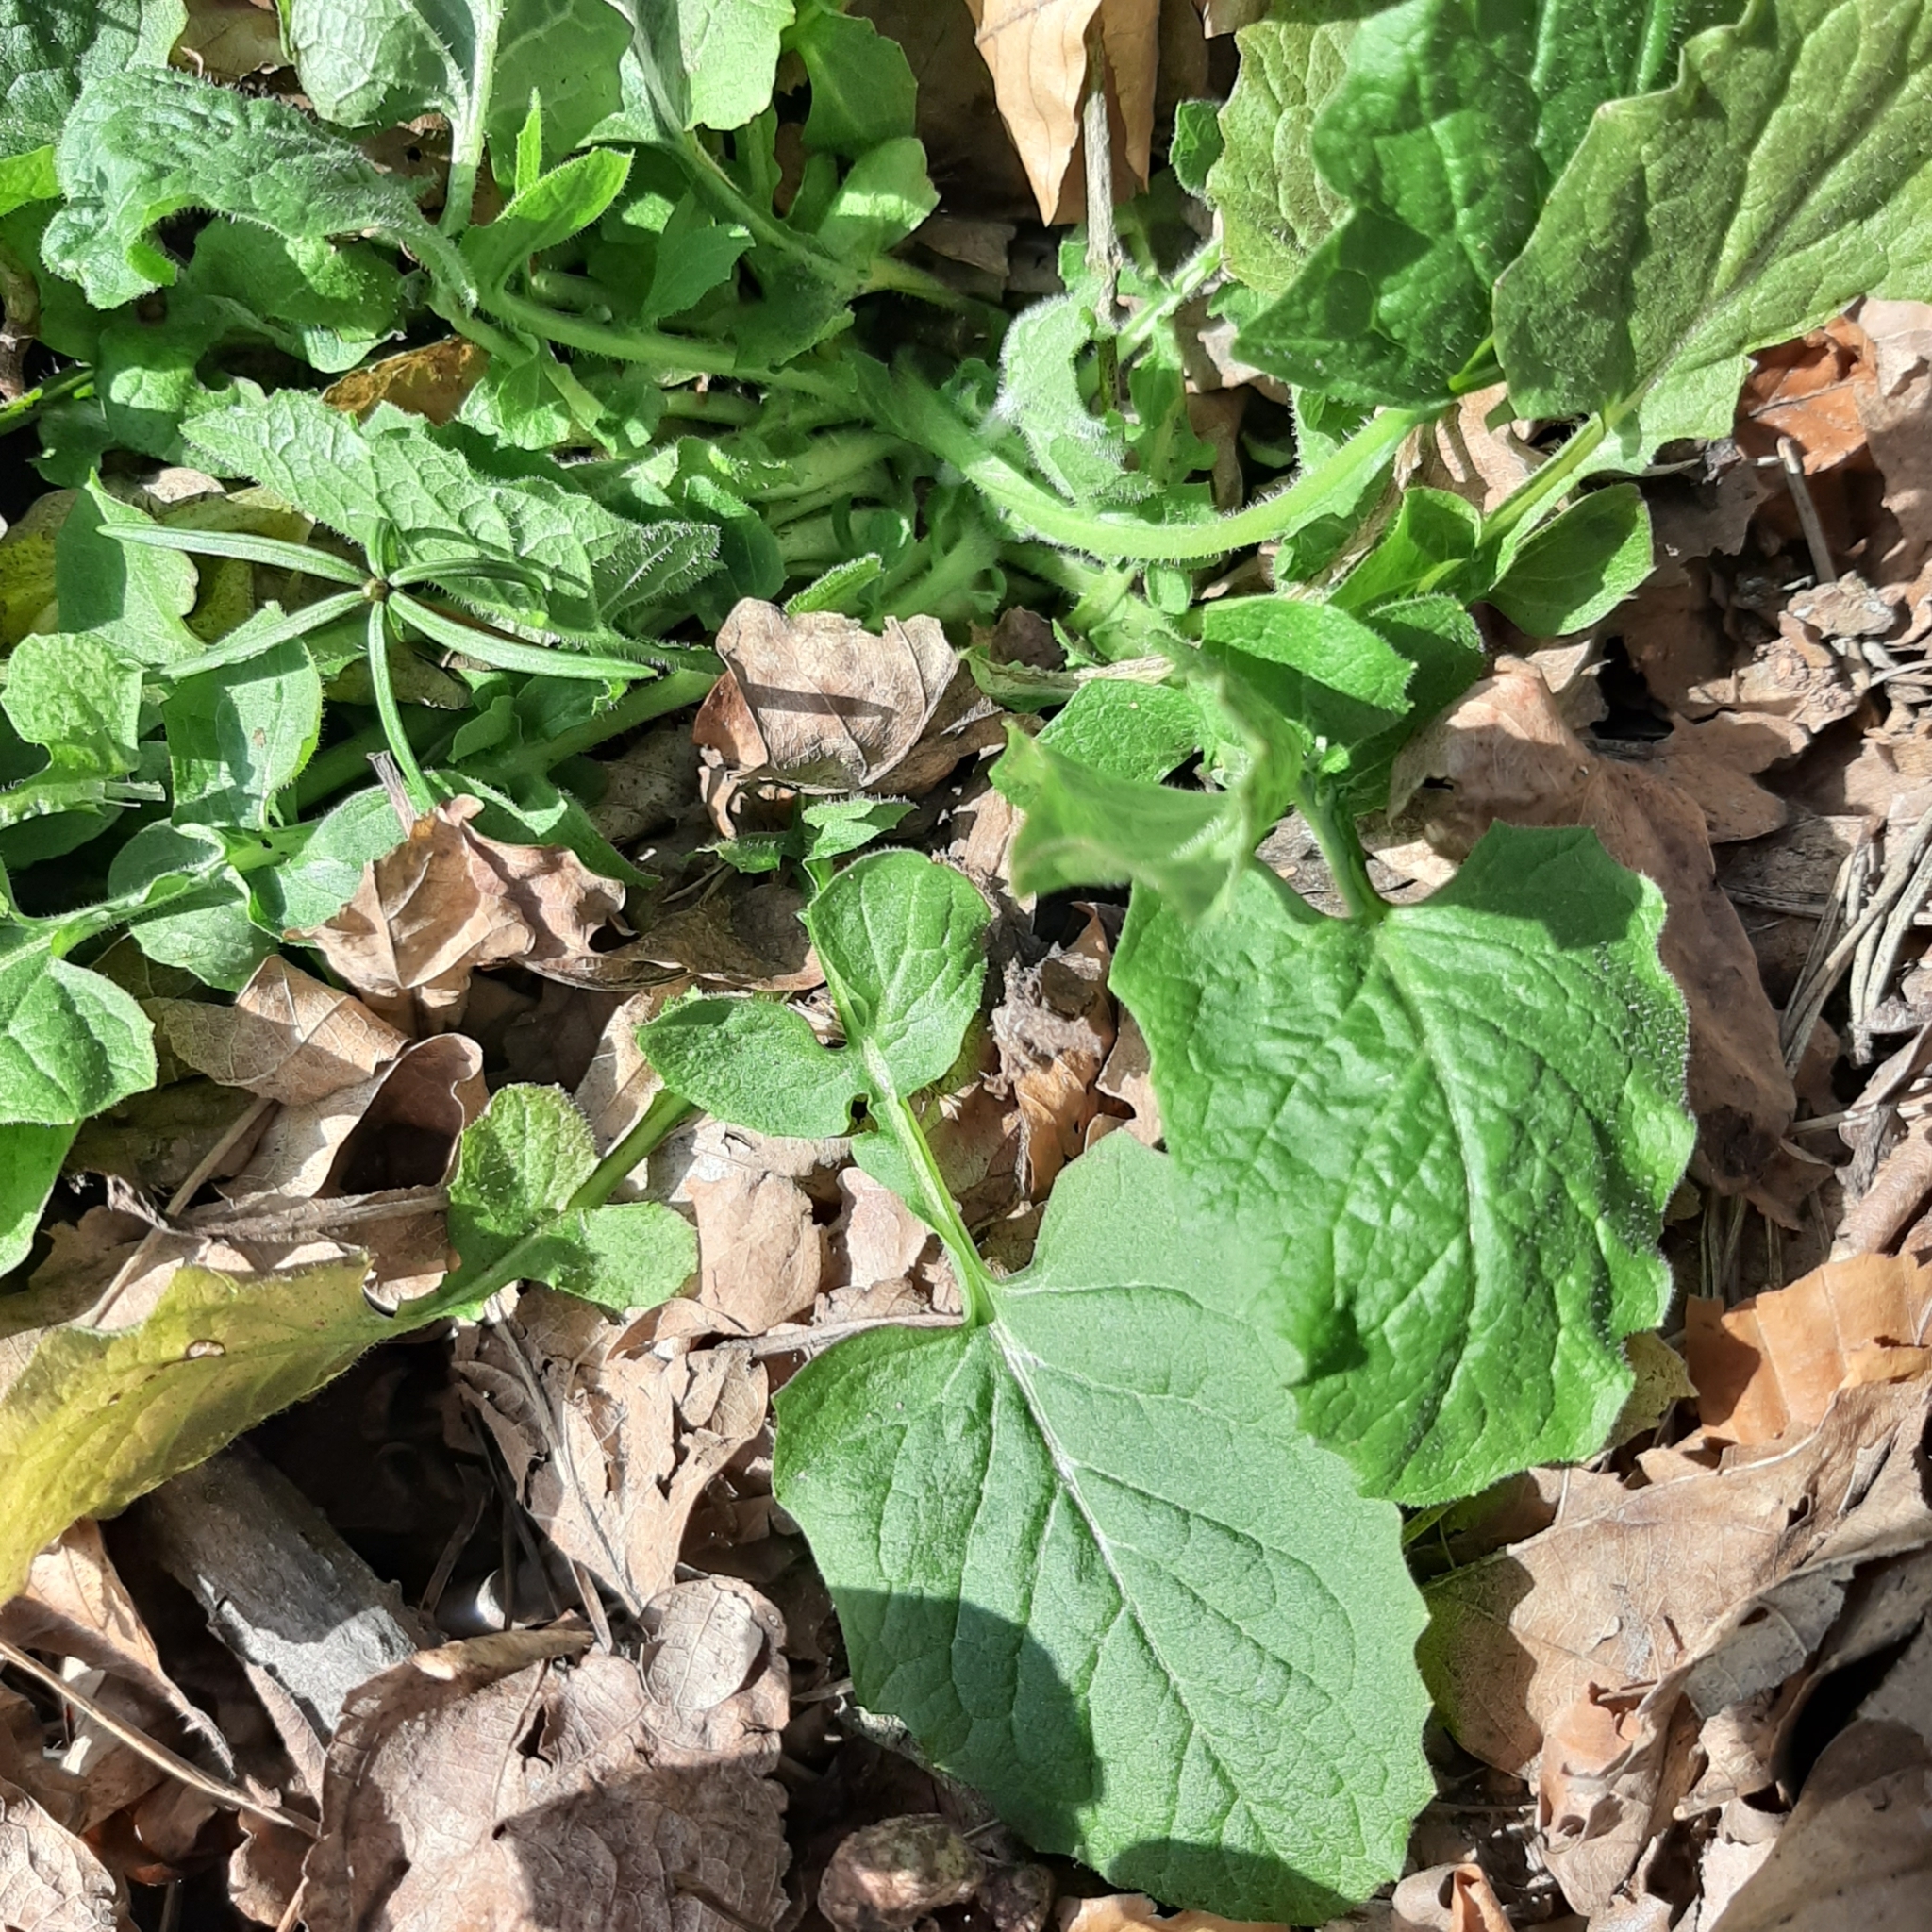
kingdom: Plantae
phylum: Tracheophyta
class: Magnoliopsida
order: Asterales
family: Asteraceae
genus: Lapsana
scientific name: Lapsana communis
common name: Nipplewort
